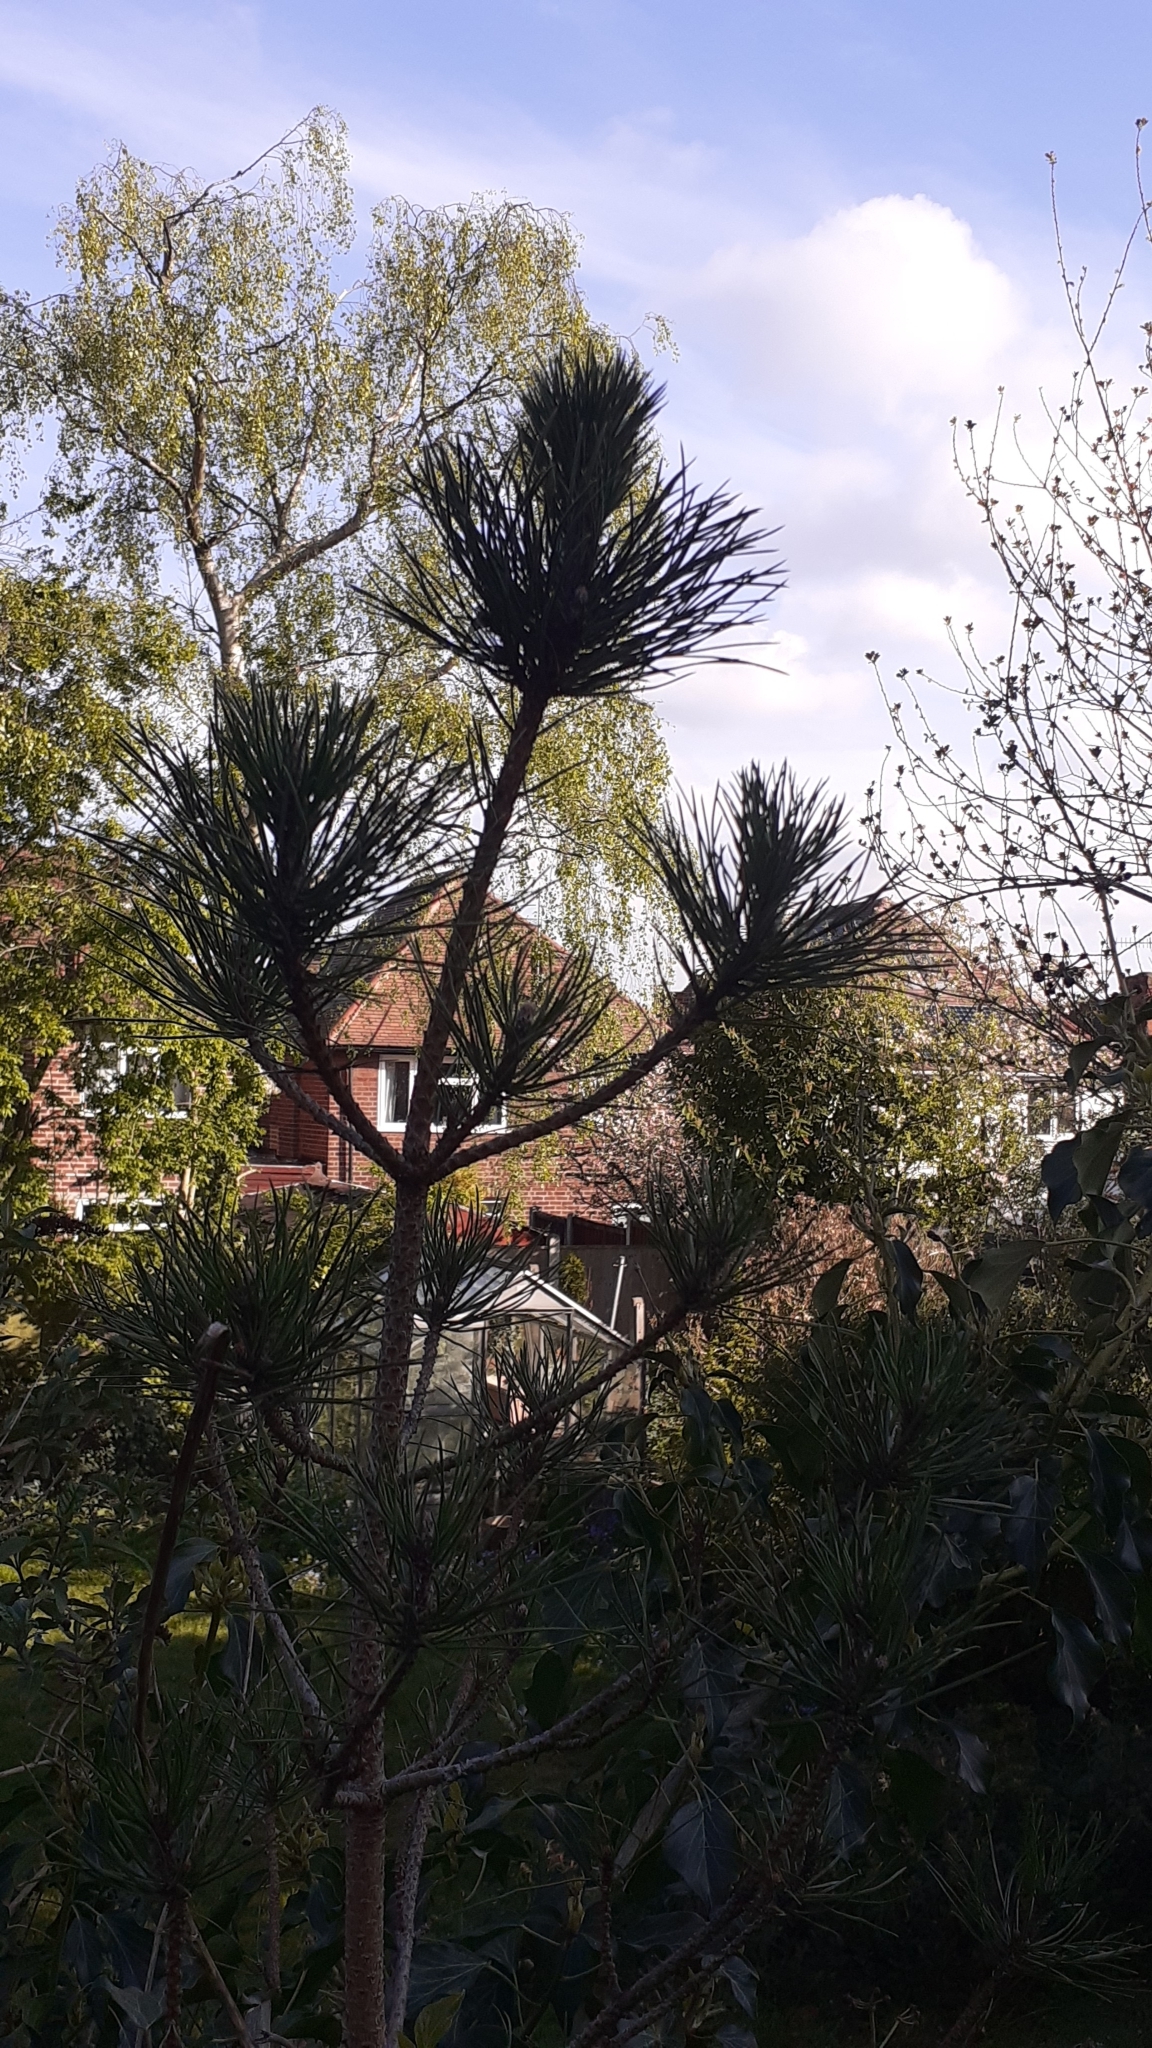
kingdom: Plantae
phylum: Tracheophyta
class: Pinopsida
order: Pinales
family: Pinaceae
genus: Pinus
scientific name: Pinus sylvestris
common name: Scots pine
